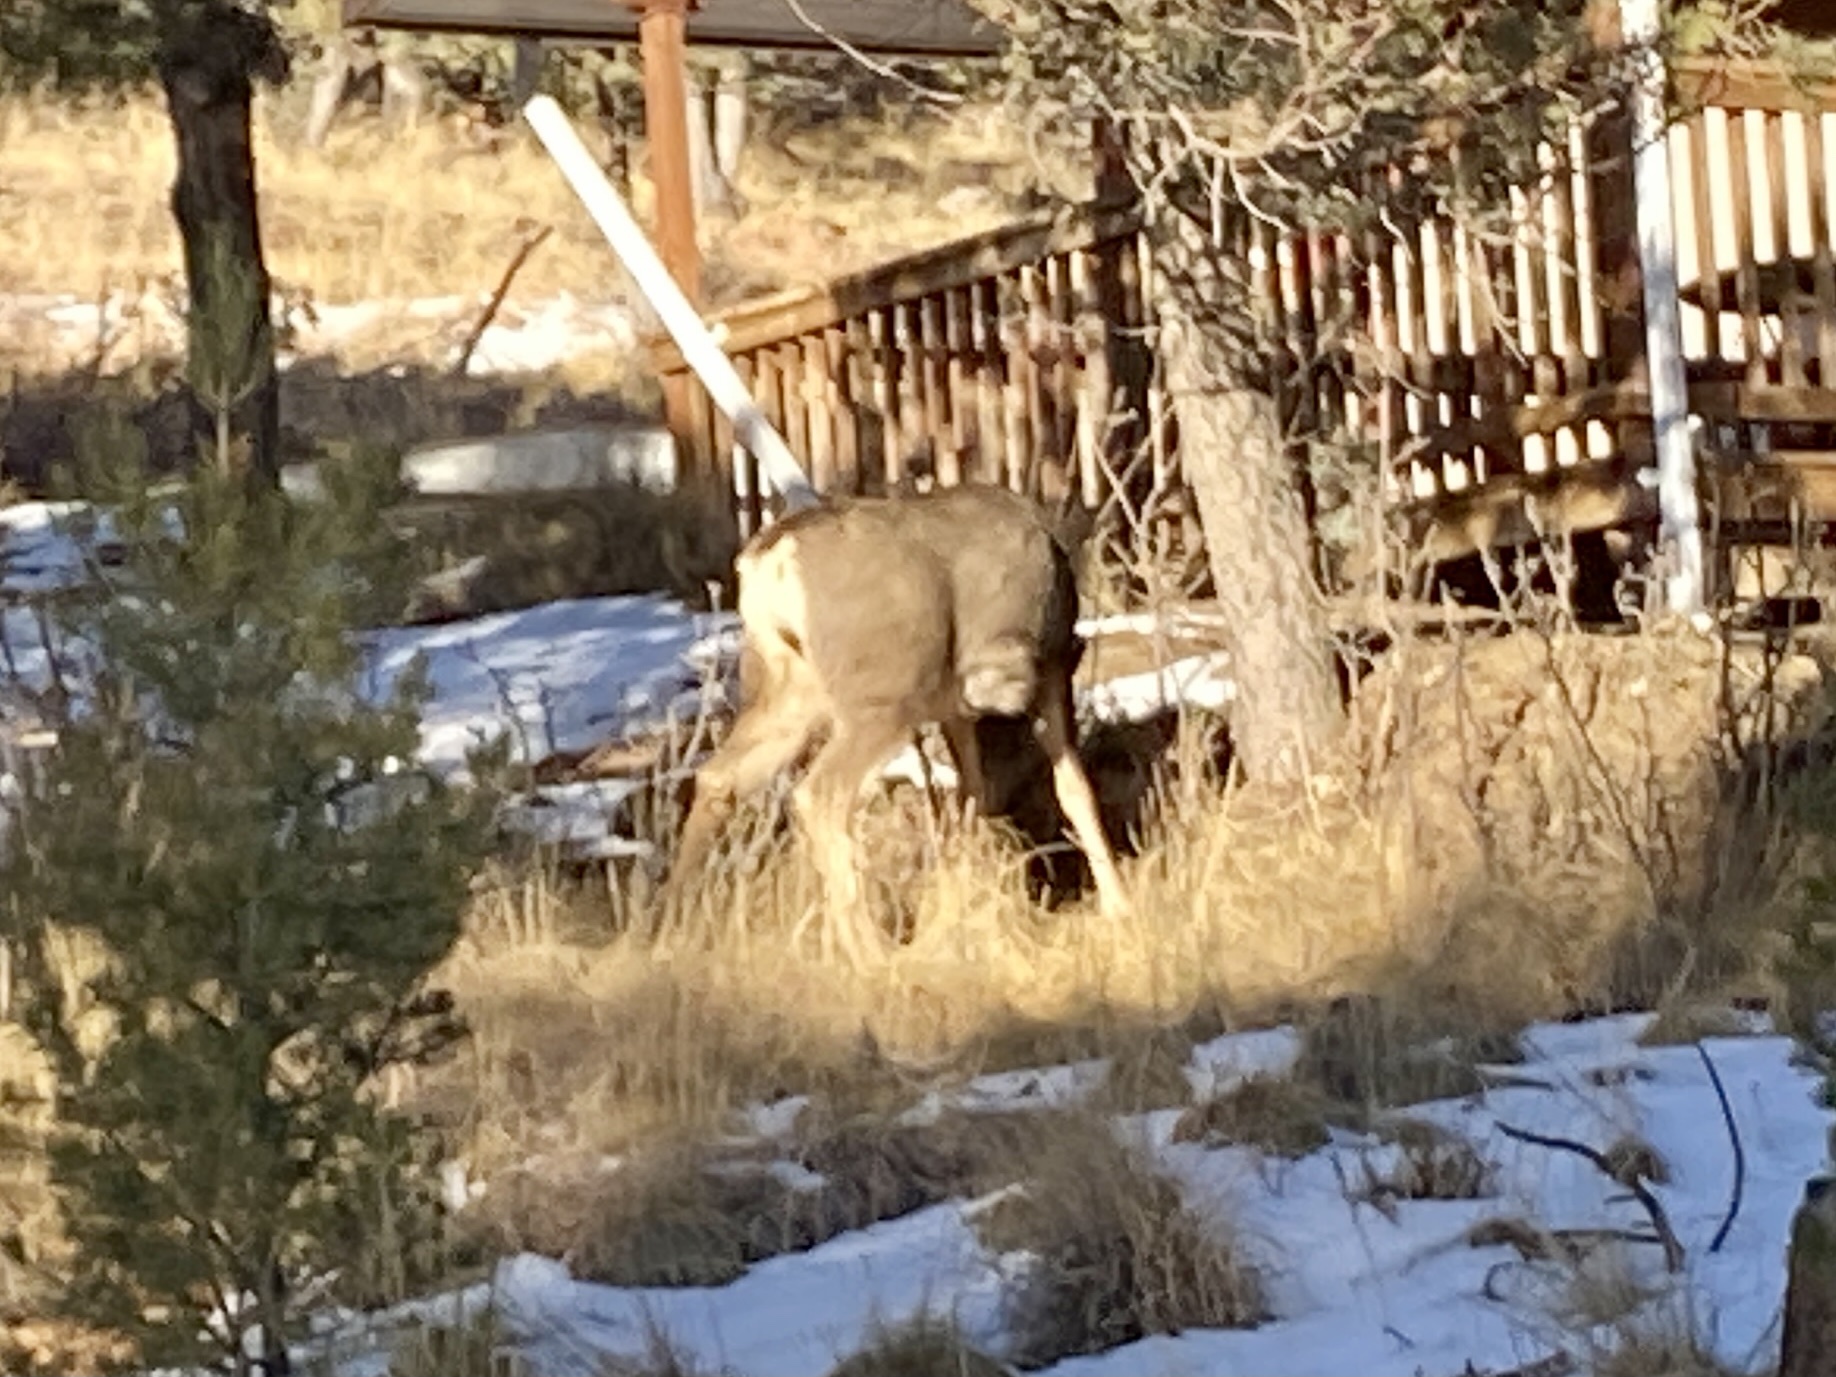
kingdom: Animalia
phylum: Chordata
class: Mammalia
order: Artiodactyla
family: Cervidae
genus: Odocoileus
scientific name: Odocoileus hemionus
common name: Mule deer
